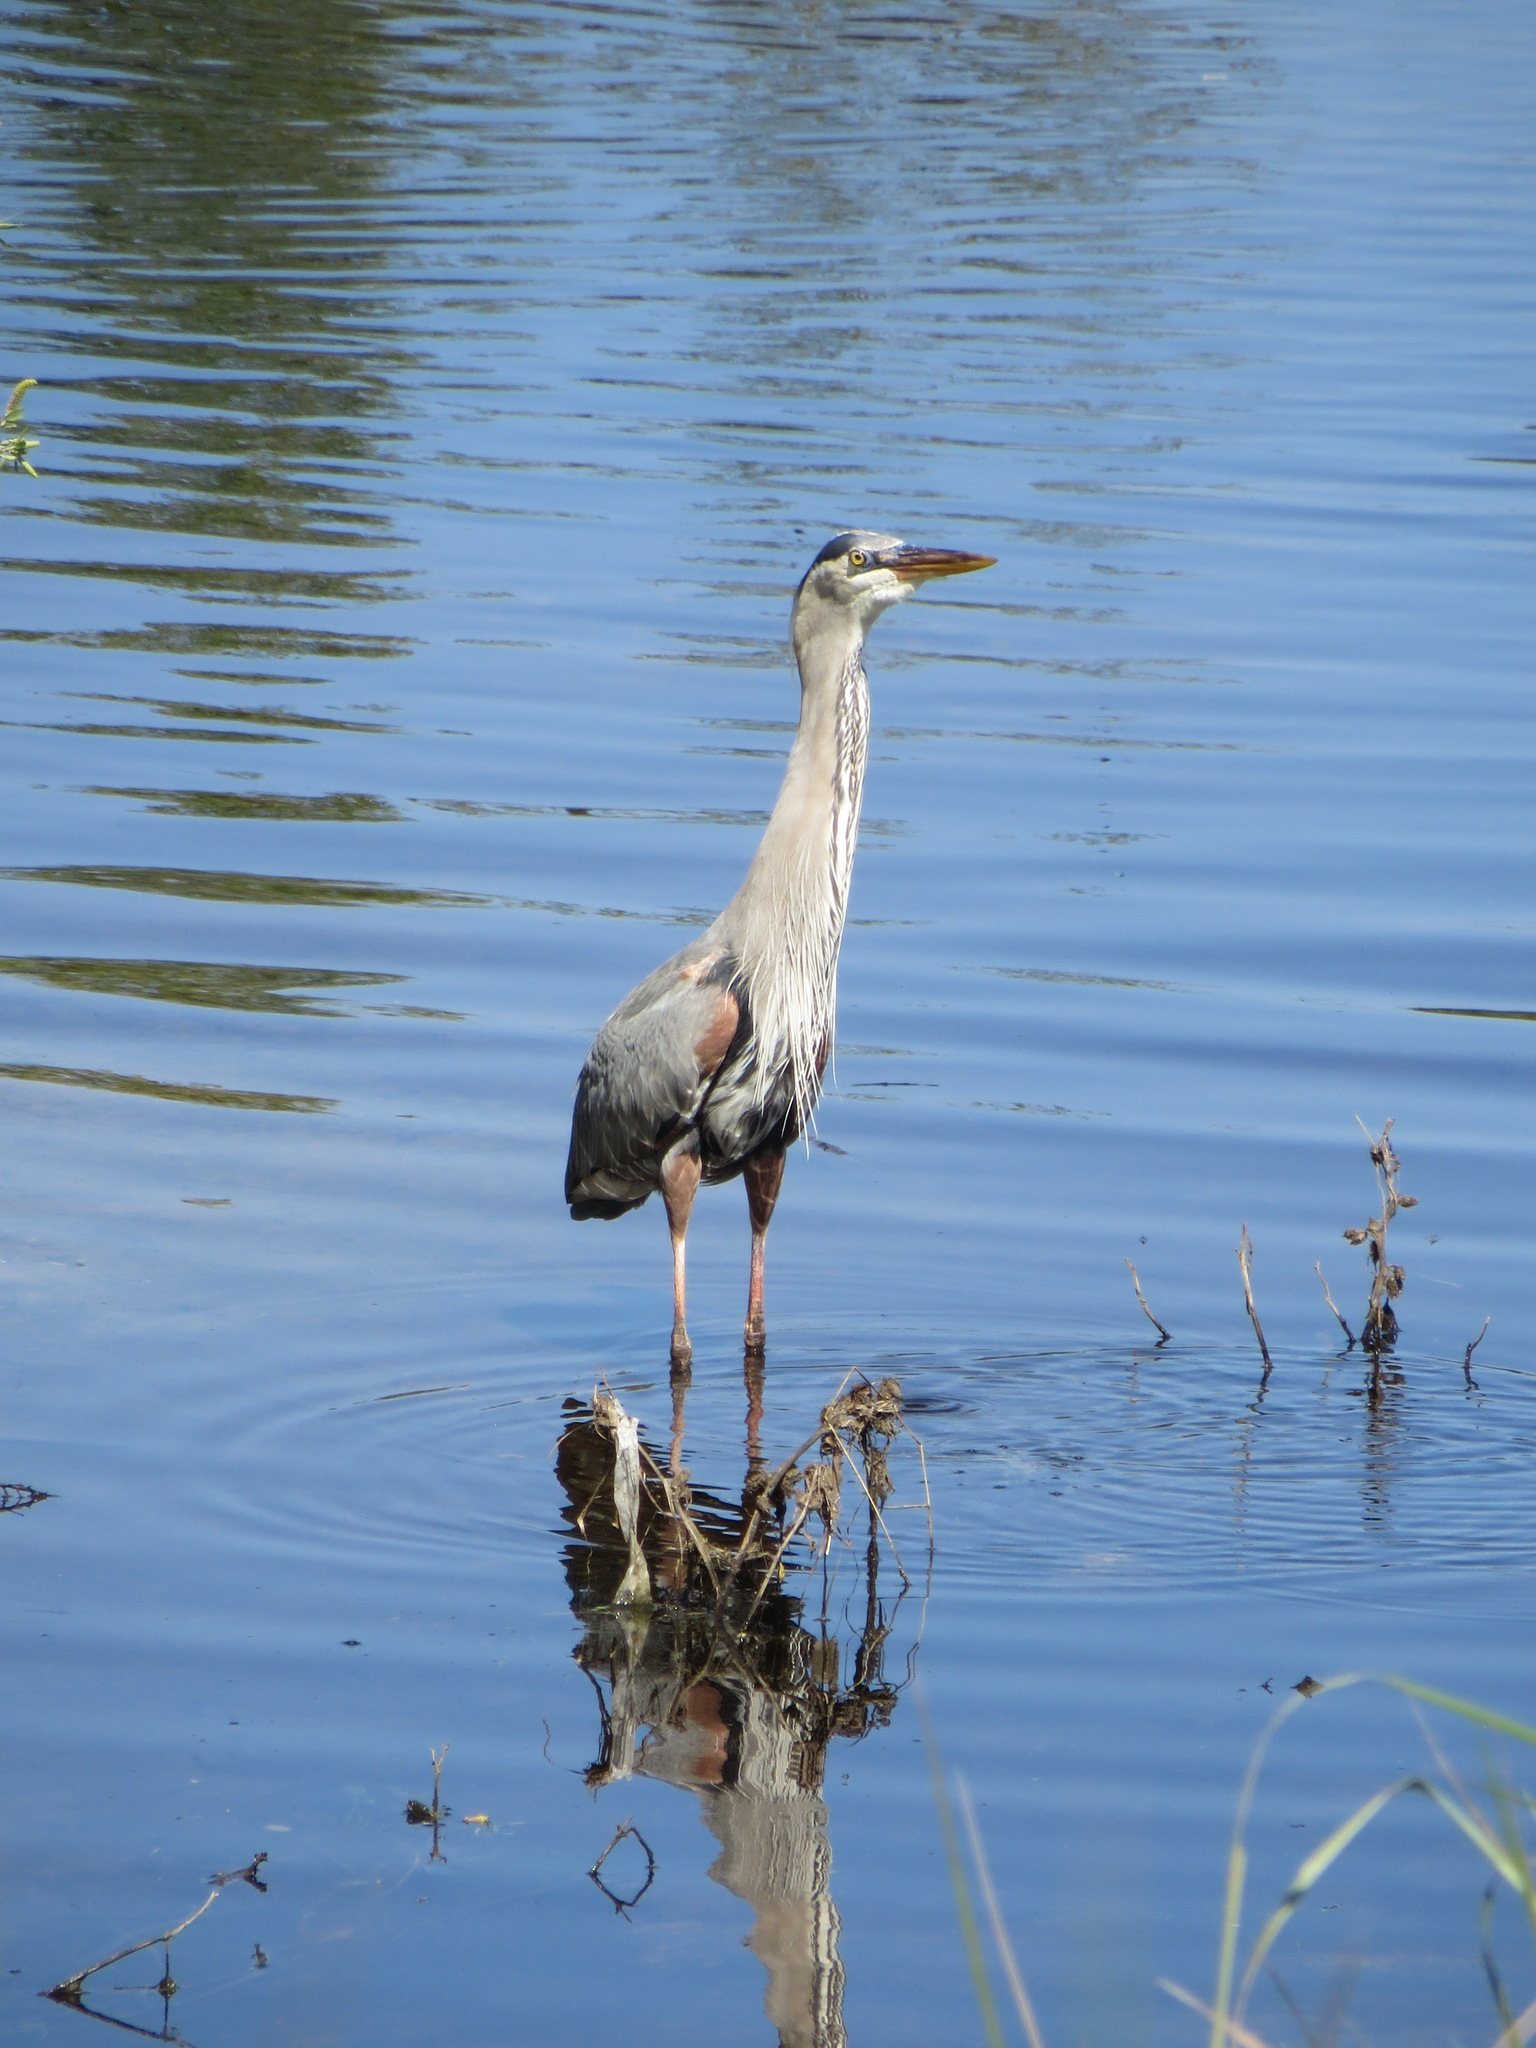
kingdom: Animalia
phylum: Chordata
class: Aves
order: Pelecaniformes
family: Ardeidae
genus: Ardea
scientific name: Ardea herodias
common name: Great blue heron
